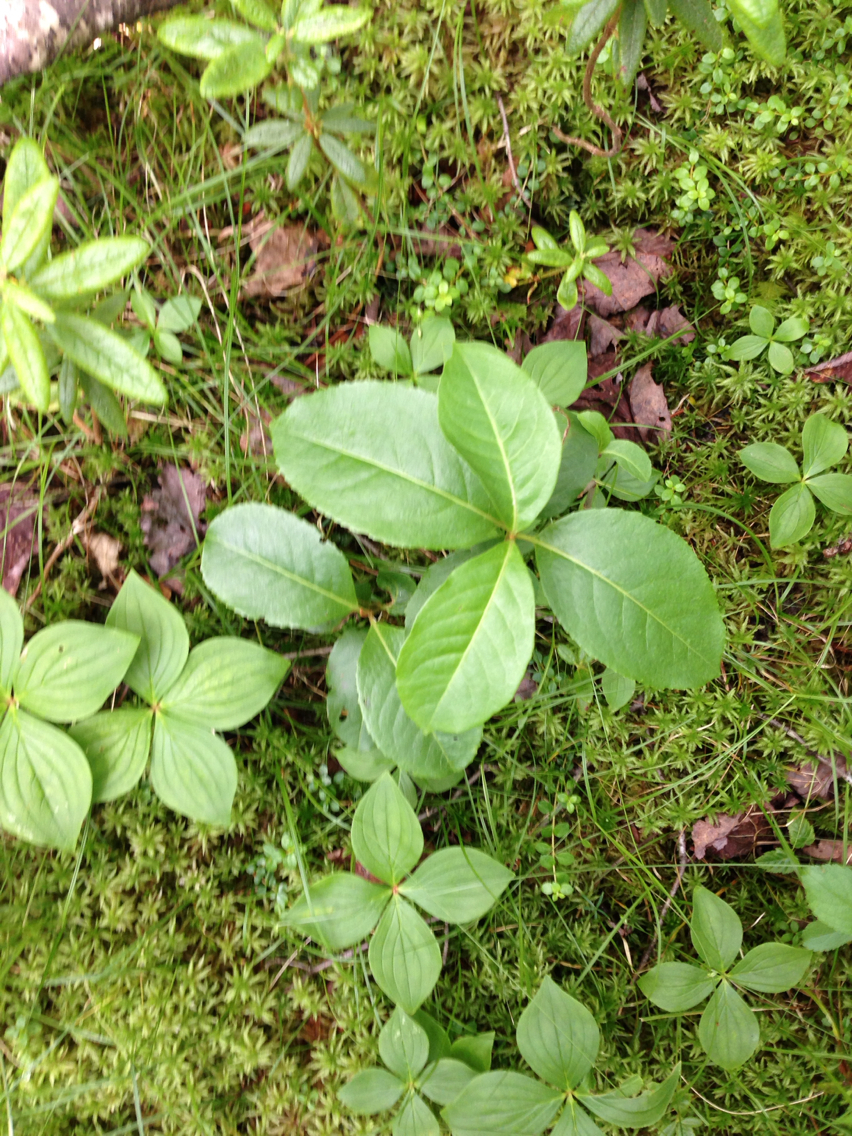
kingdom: Plantae
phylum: Tracheophyta
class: Magnoliopsida
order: Dipsacales
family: Viburnaceae
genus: Viburnum
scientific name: Viburnum cassinoides
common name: Swamp haw
